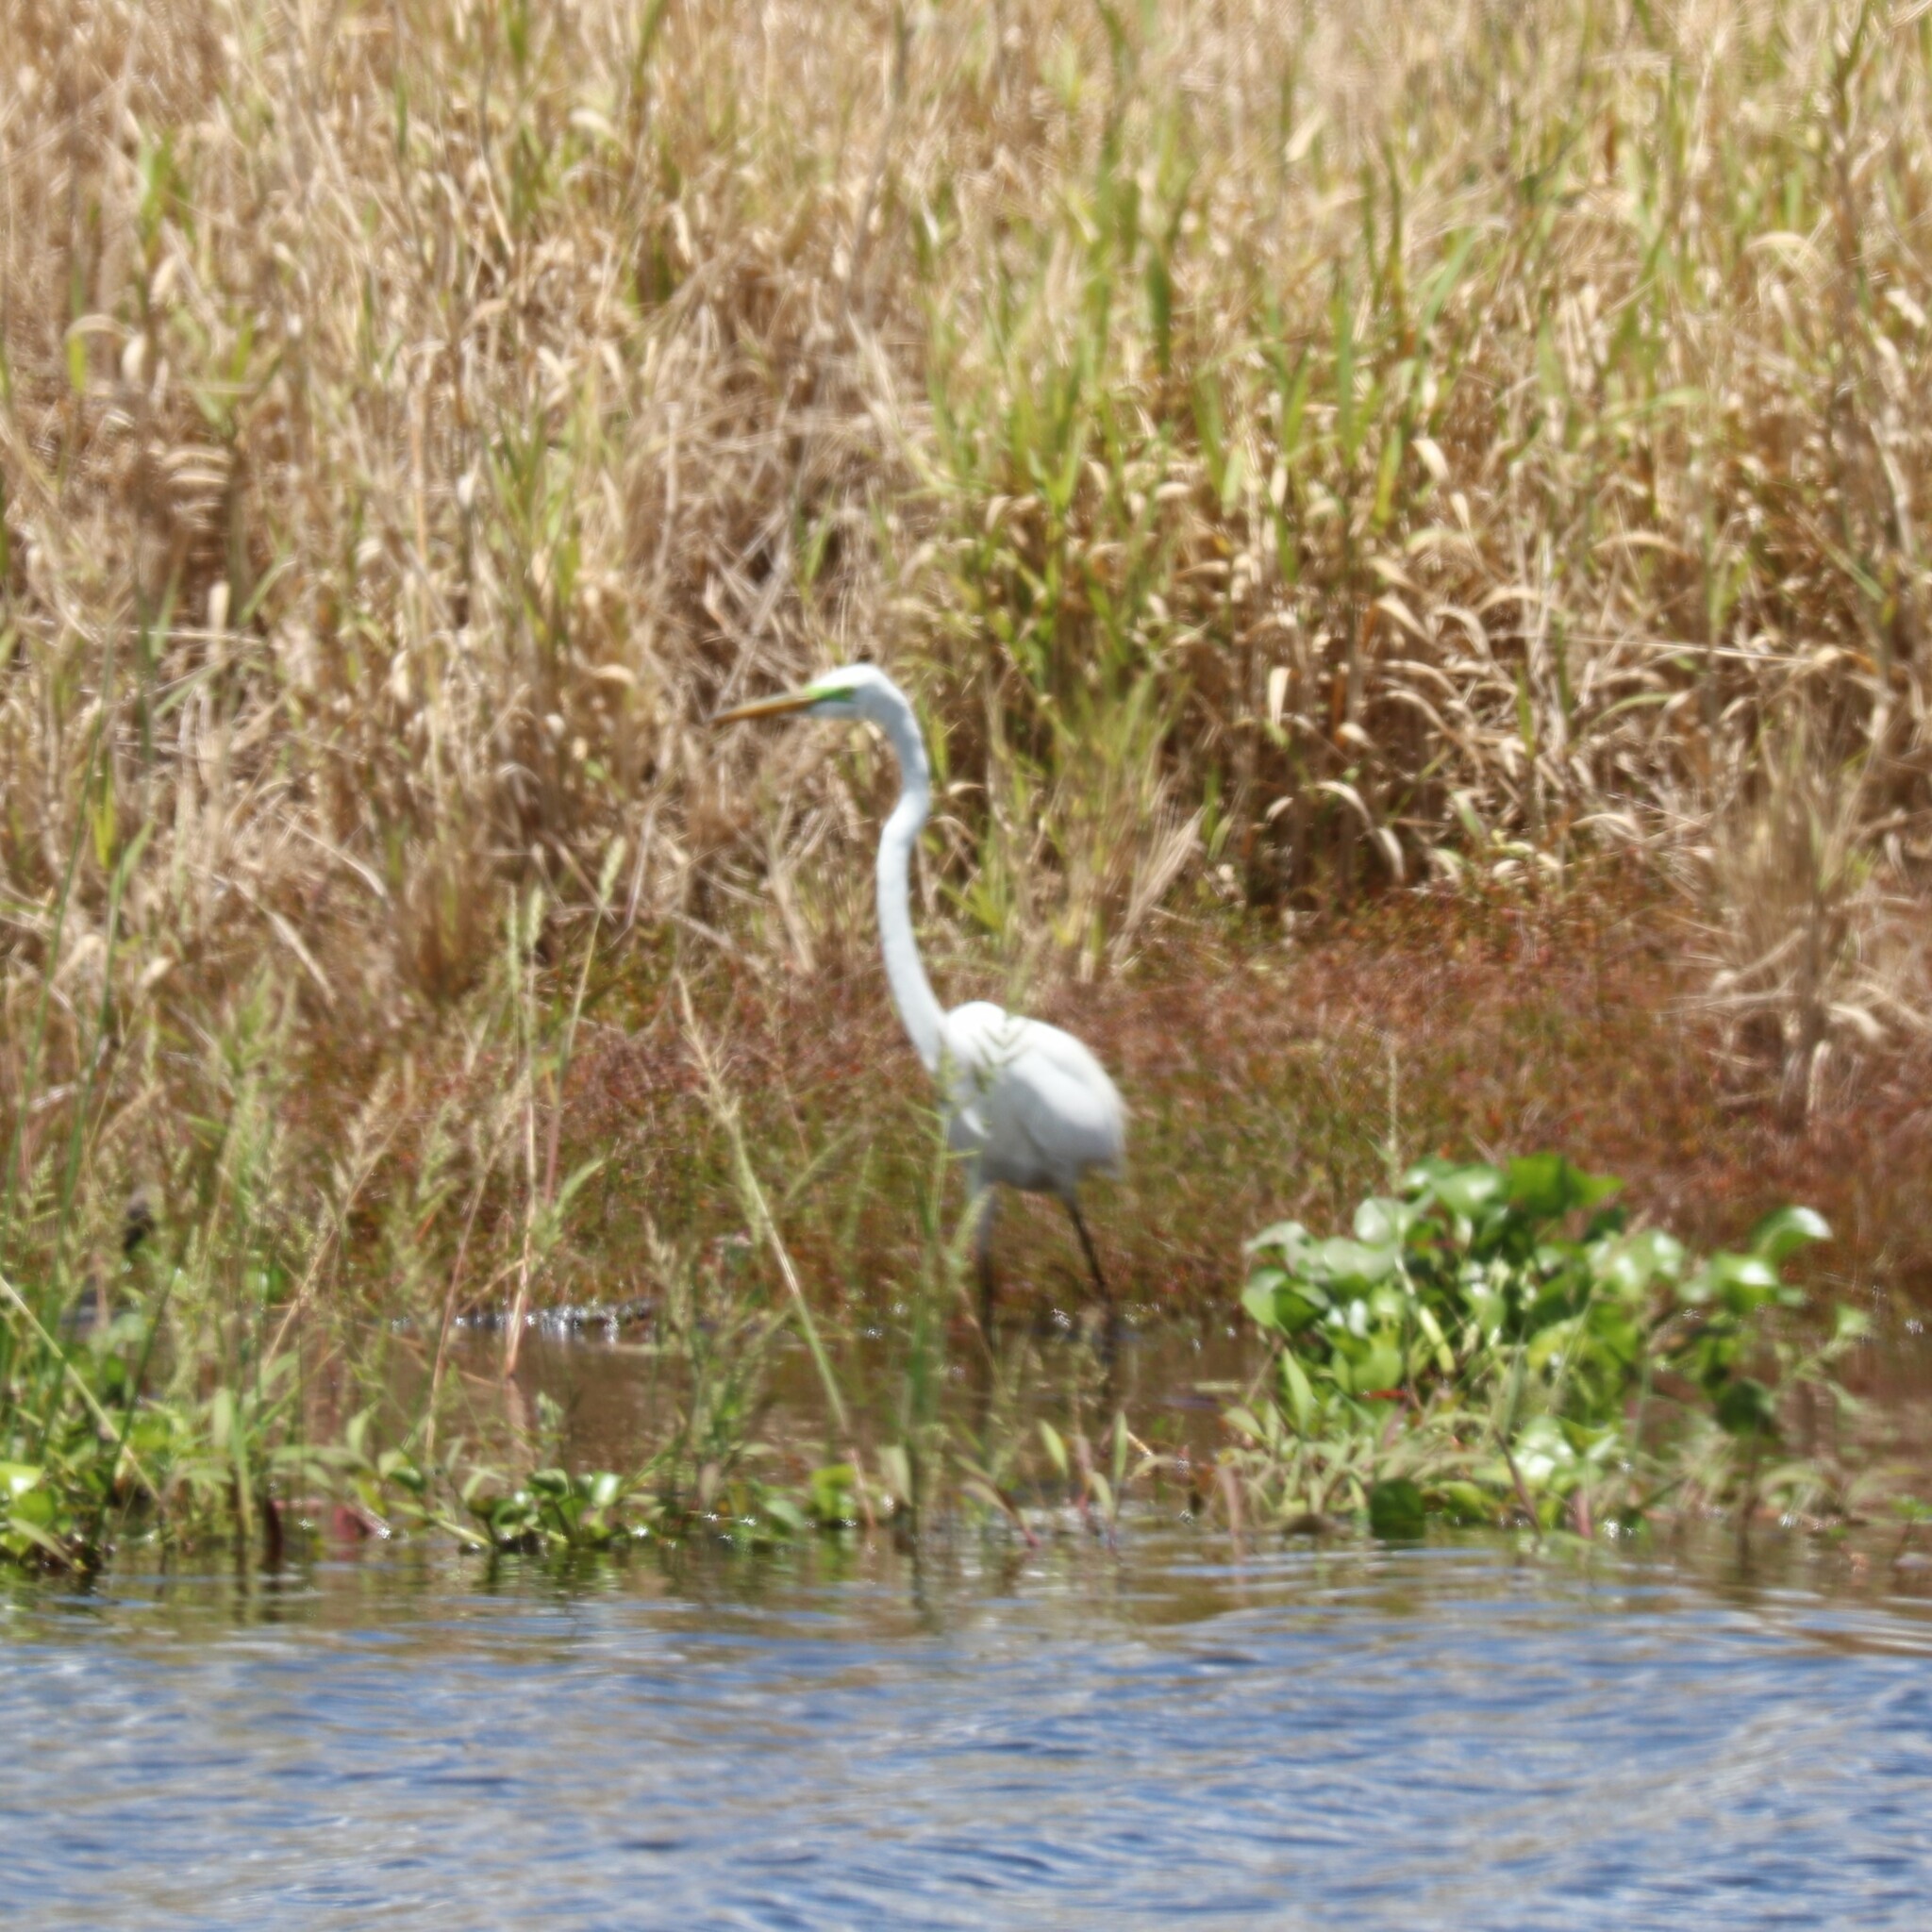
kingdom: Animalia
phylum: Chordata
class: Aves
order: Pelecaniformes
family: Ardeidae
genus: Ardea
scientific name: Ardea alba
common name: Great egret
